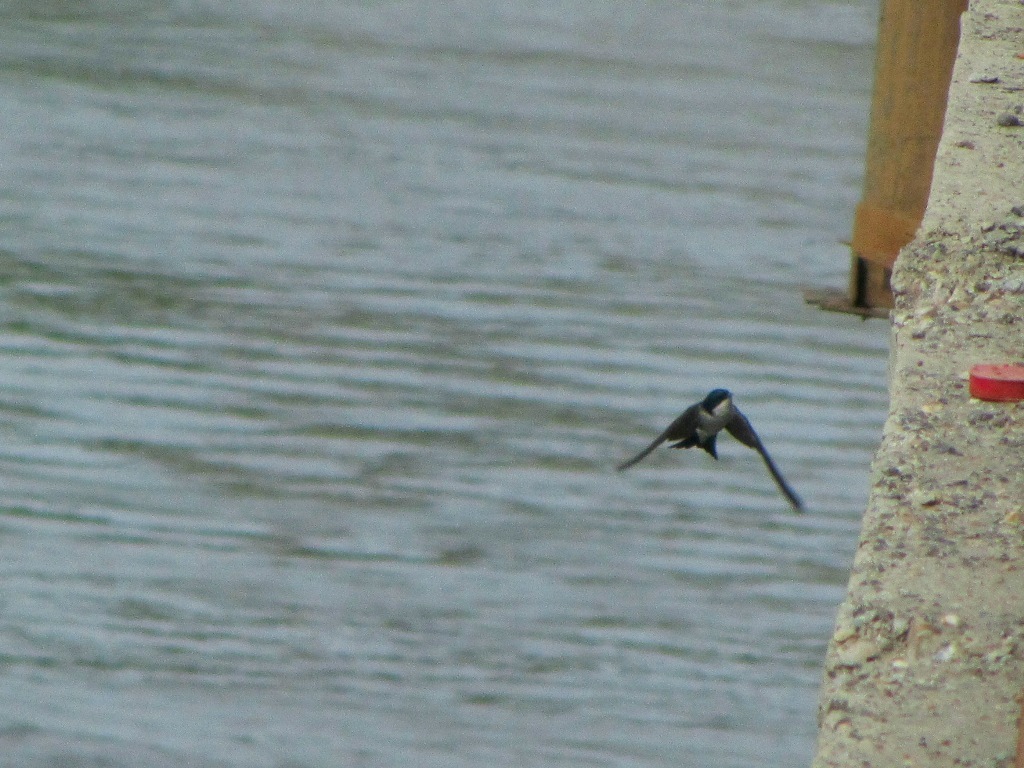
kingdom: Animalia
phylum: Chordata
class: Aves
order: Passeriformes
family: Hirundinidae
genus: Delichon
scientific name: Delichon urbicum
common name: Common house martin
